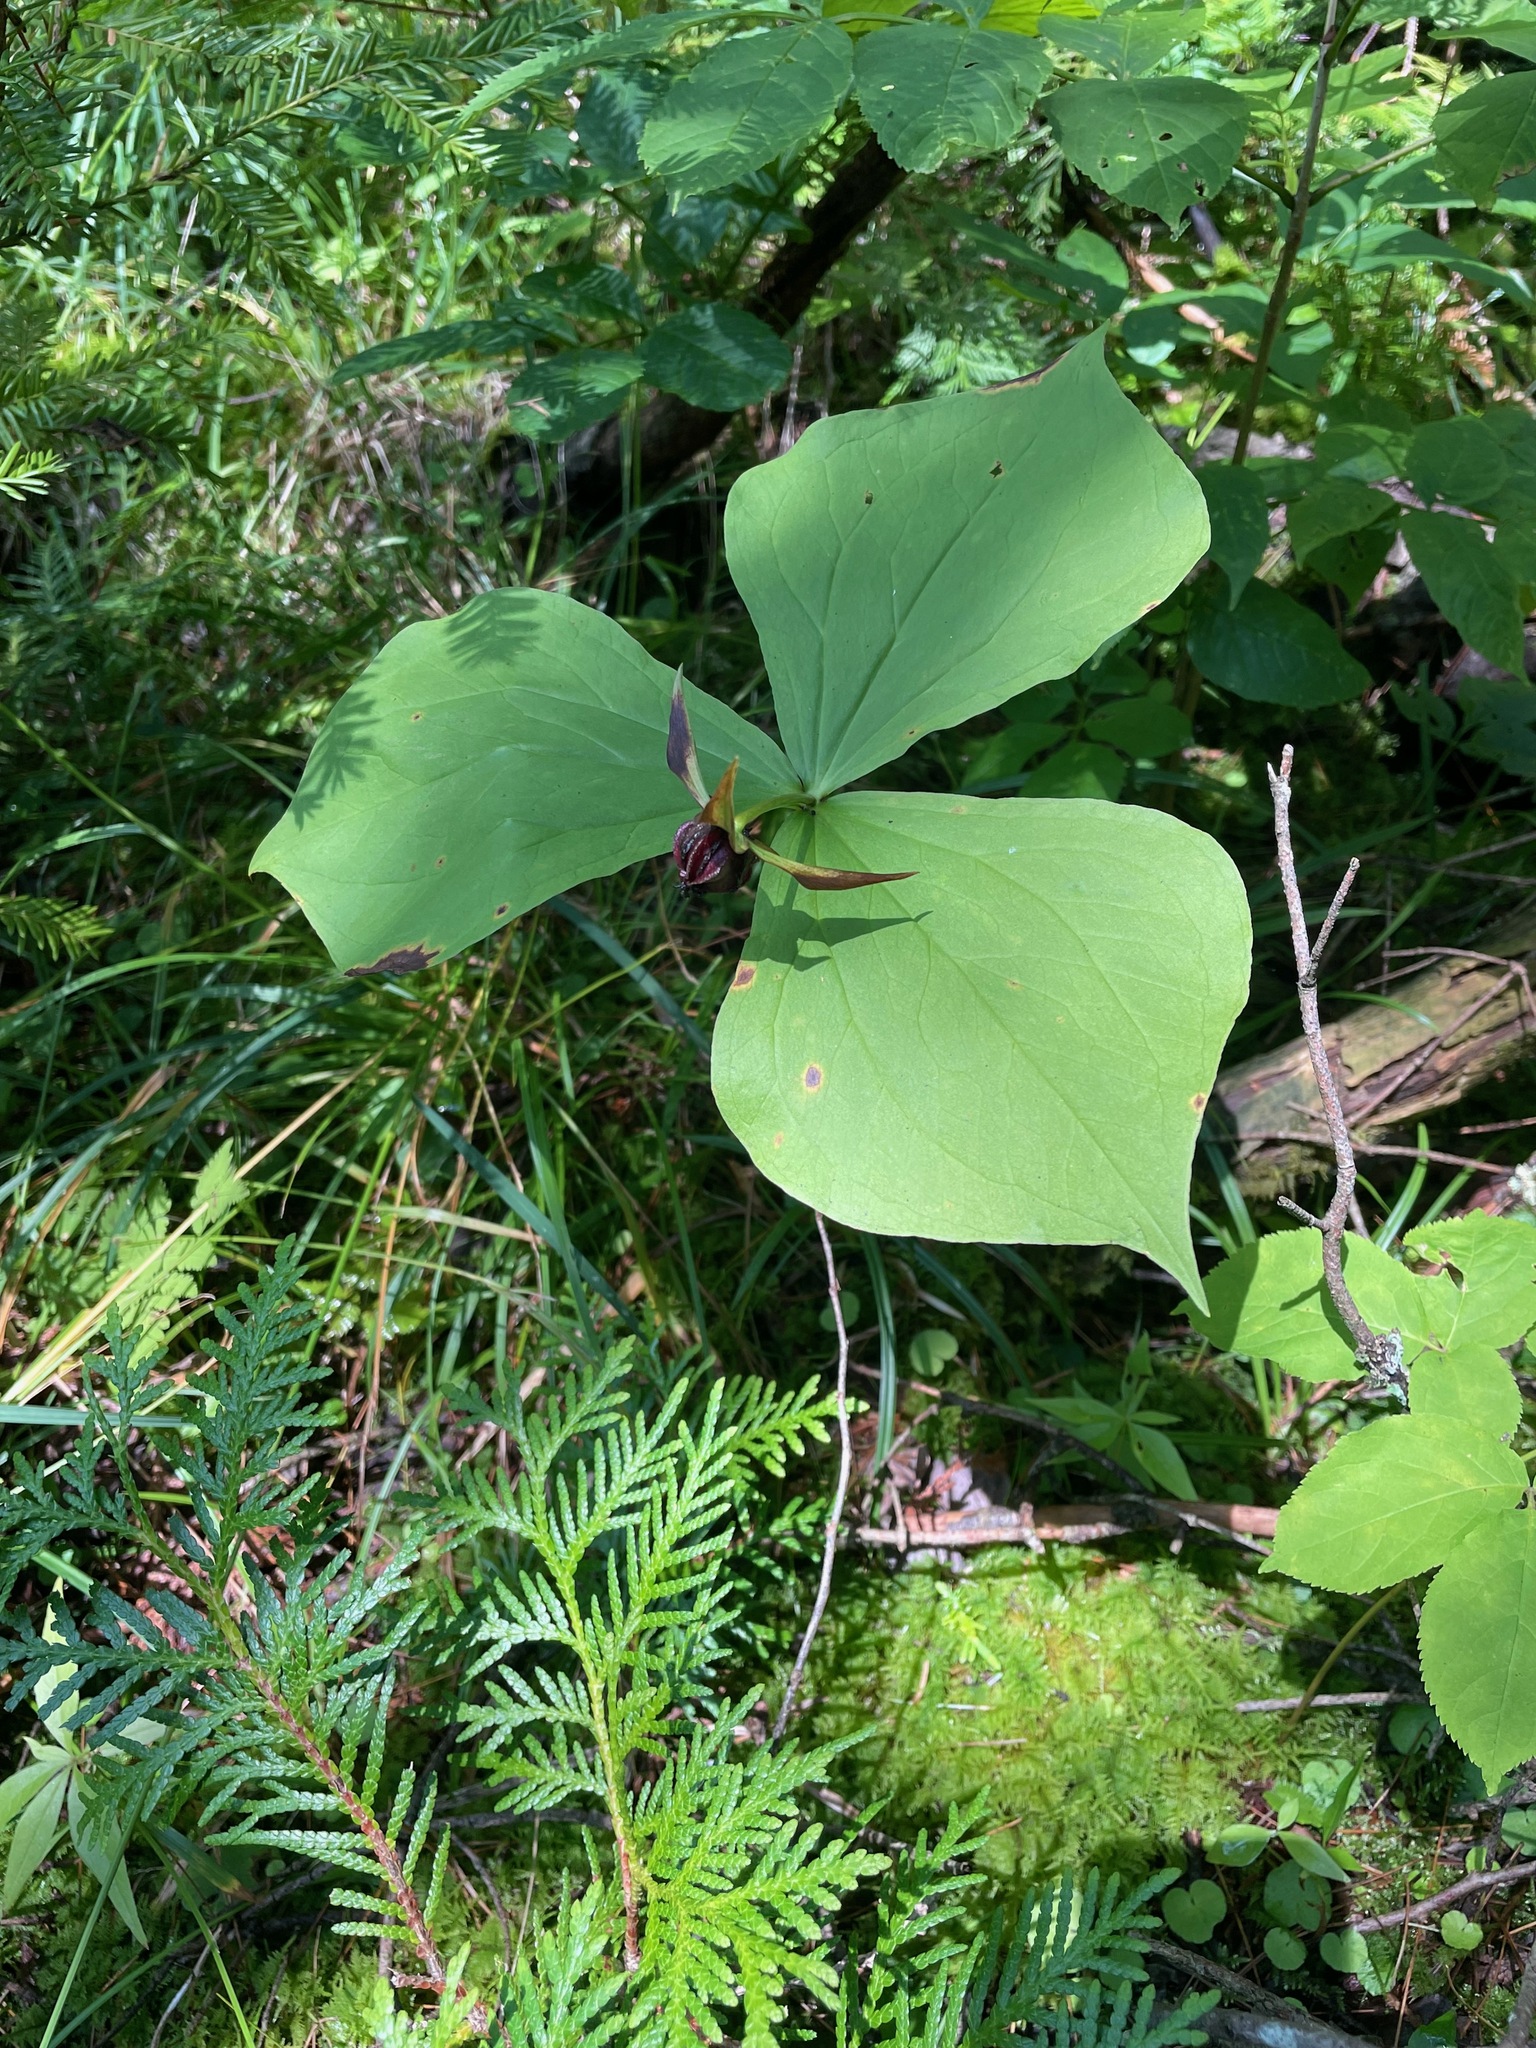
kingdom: Plantae
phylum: Tracheophyta
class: Liliopsida
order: Liliales
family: Melanthiaceae
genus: Trillium
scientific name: Trillium erectum
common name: Purple trillium
